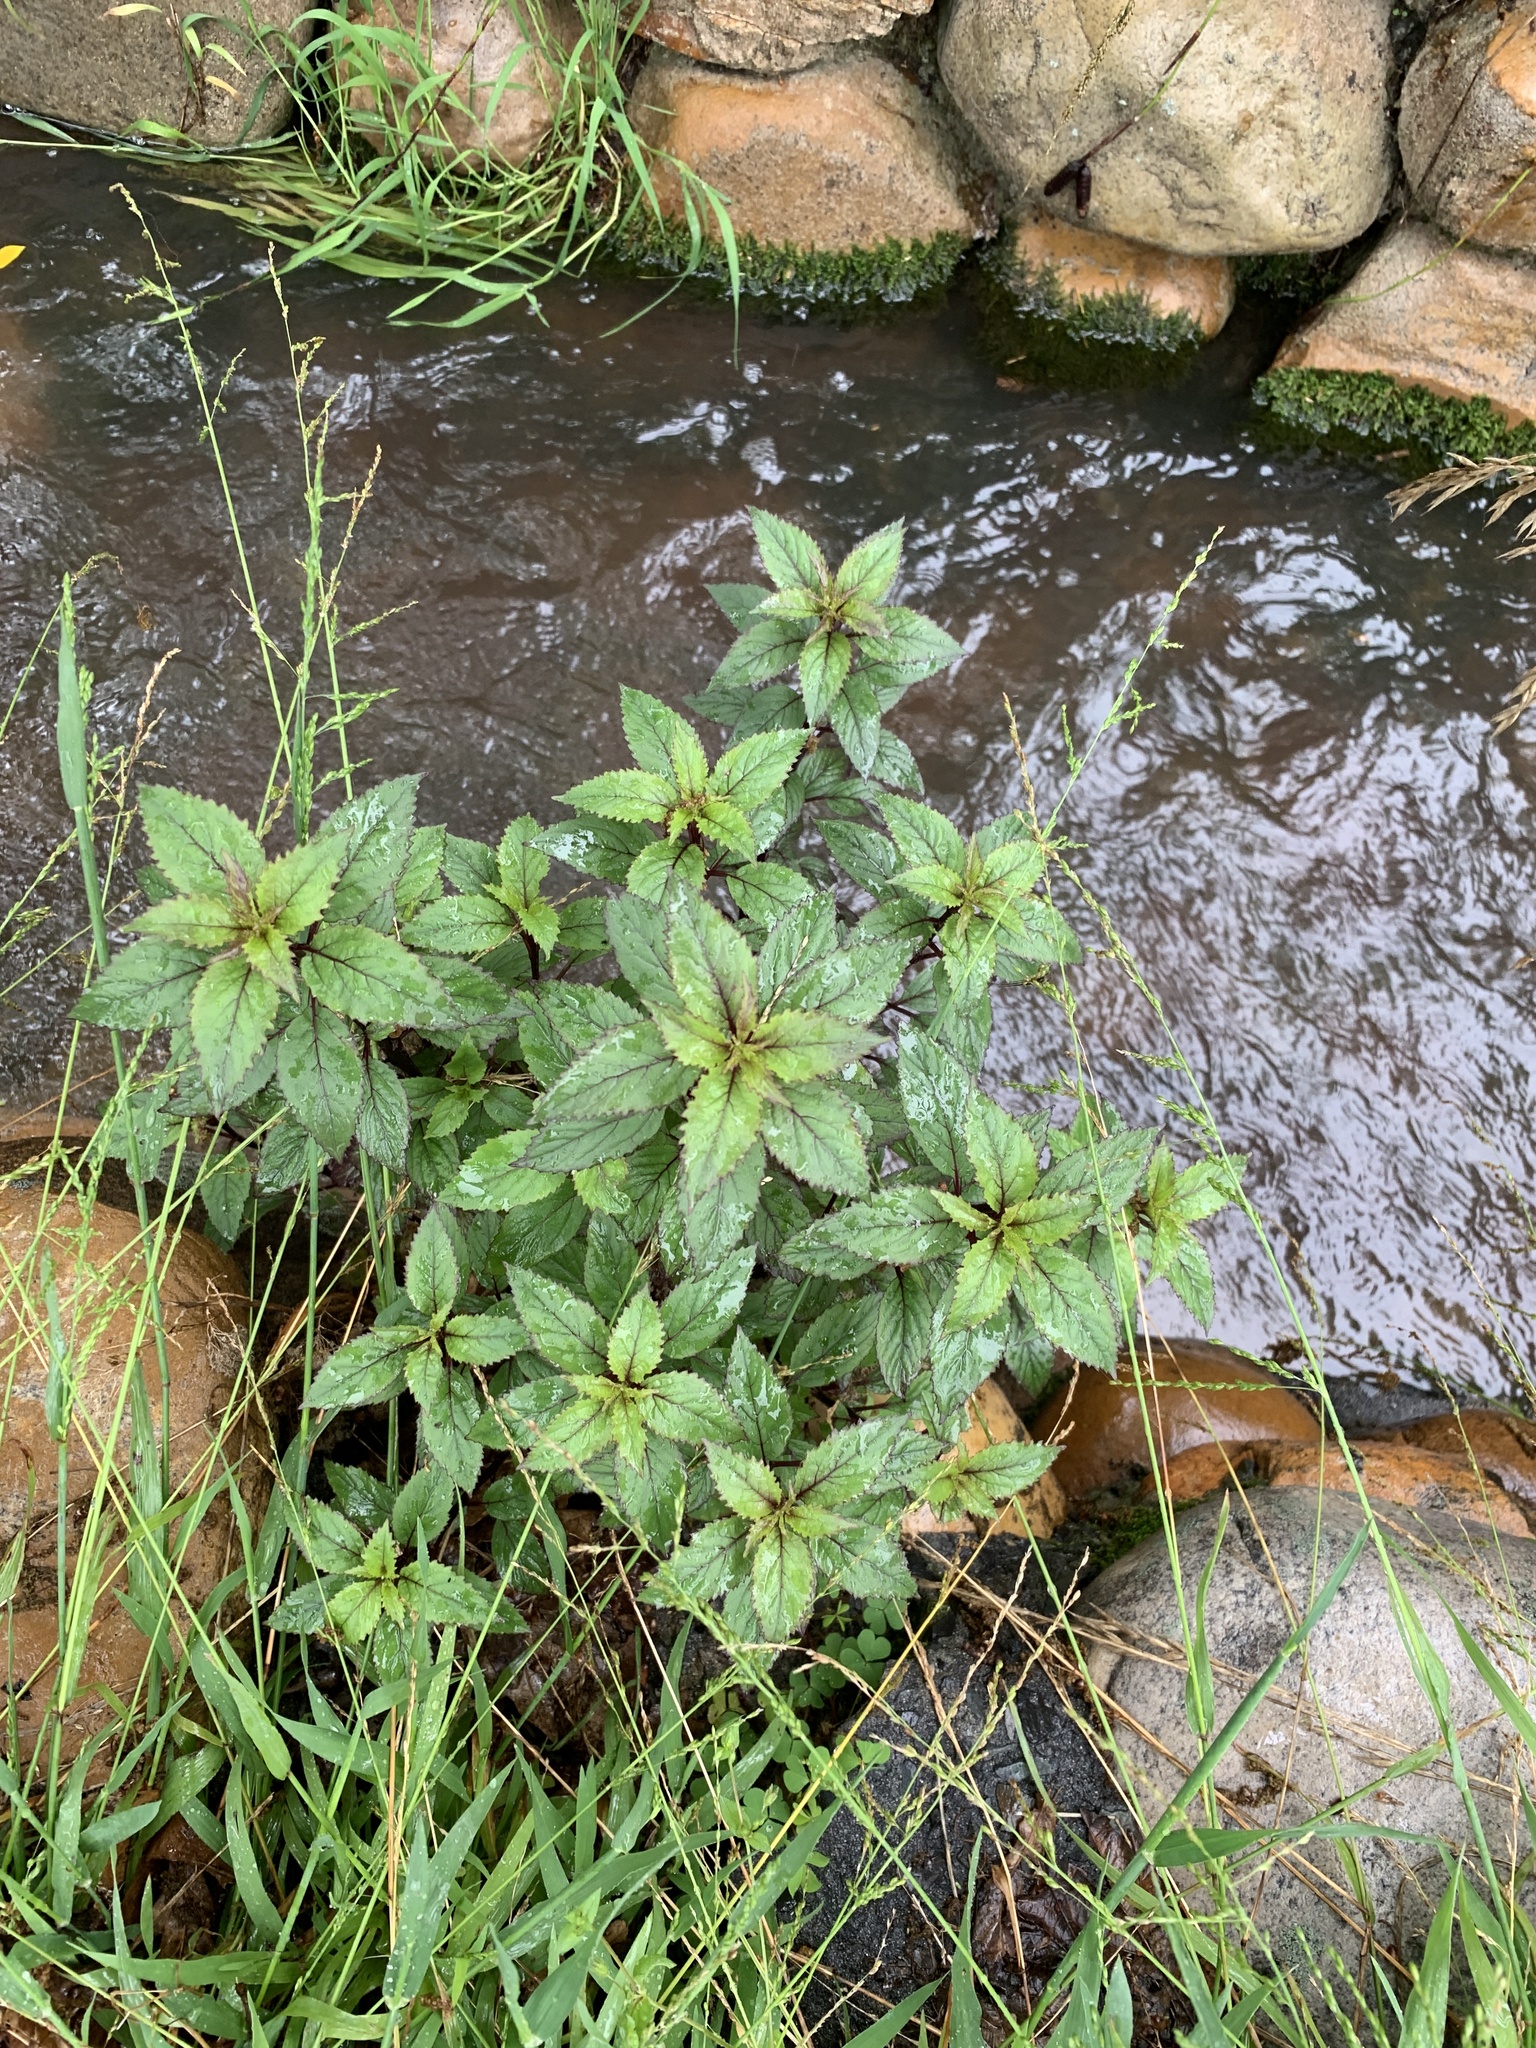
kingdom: Plantae
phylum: Tracheophyta
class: Magnoliopsida
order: Asterales
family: Campanulaceae
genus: Trachelium
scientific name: Trachelium caeruleum
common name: Throatwort
